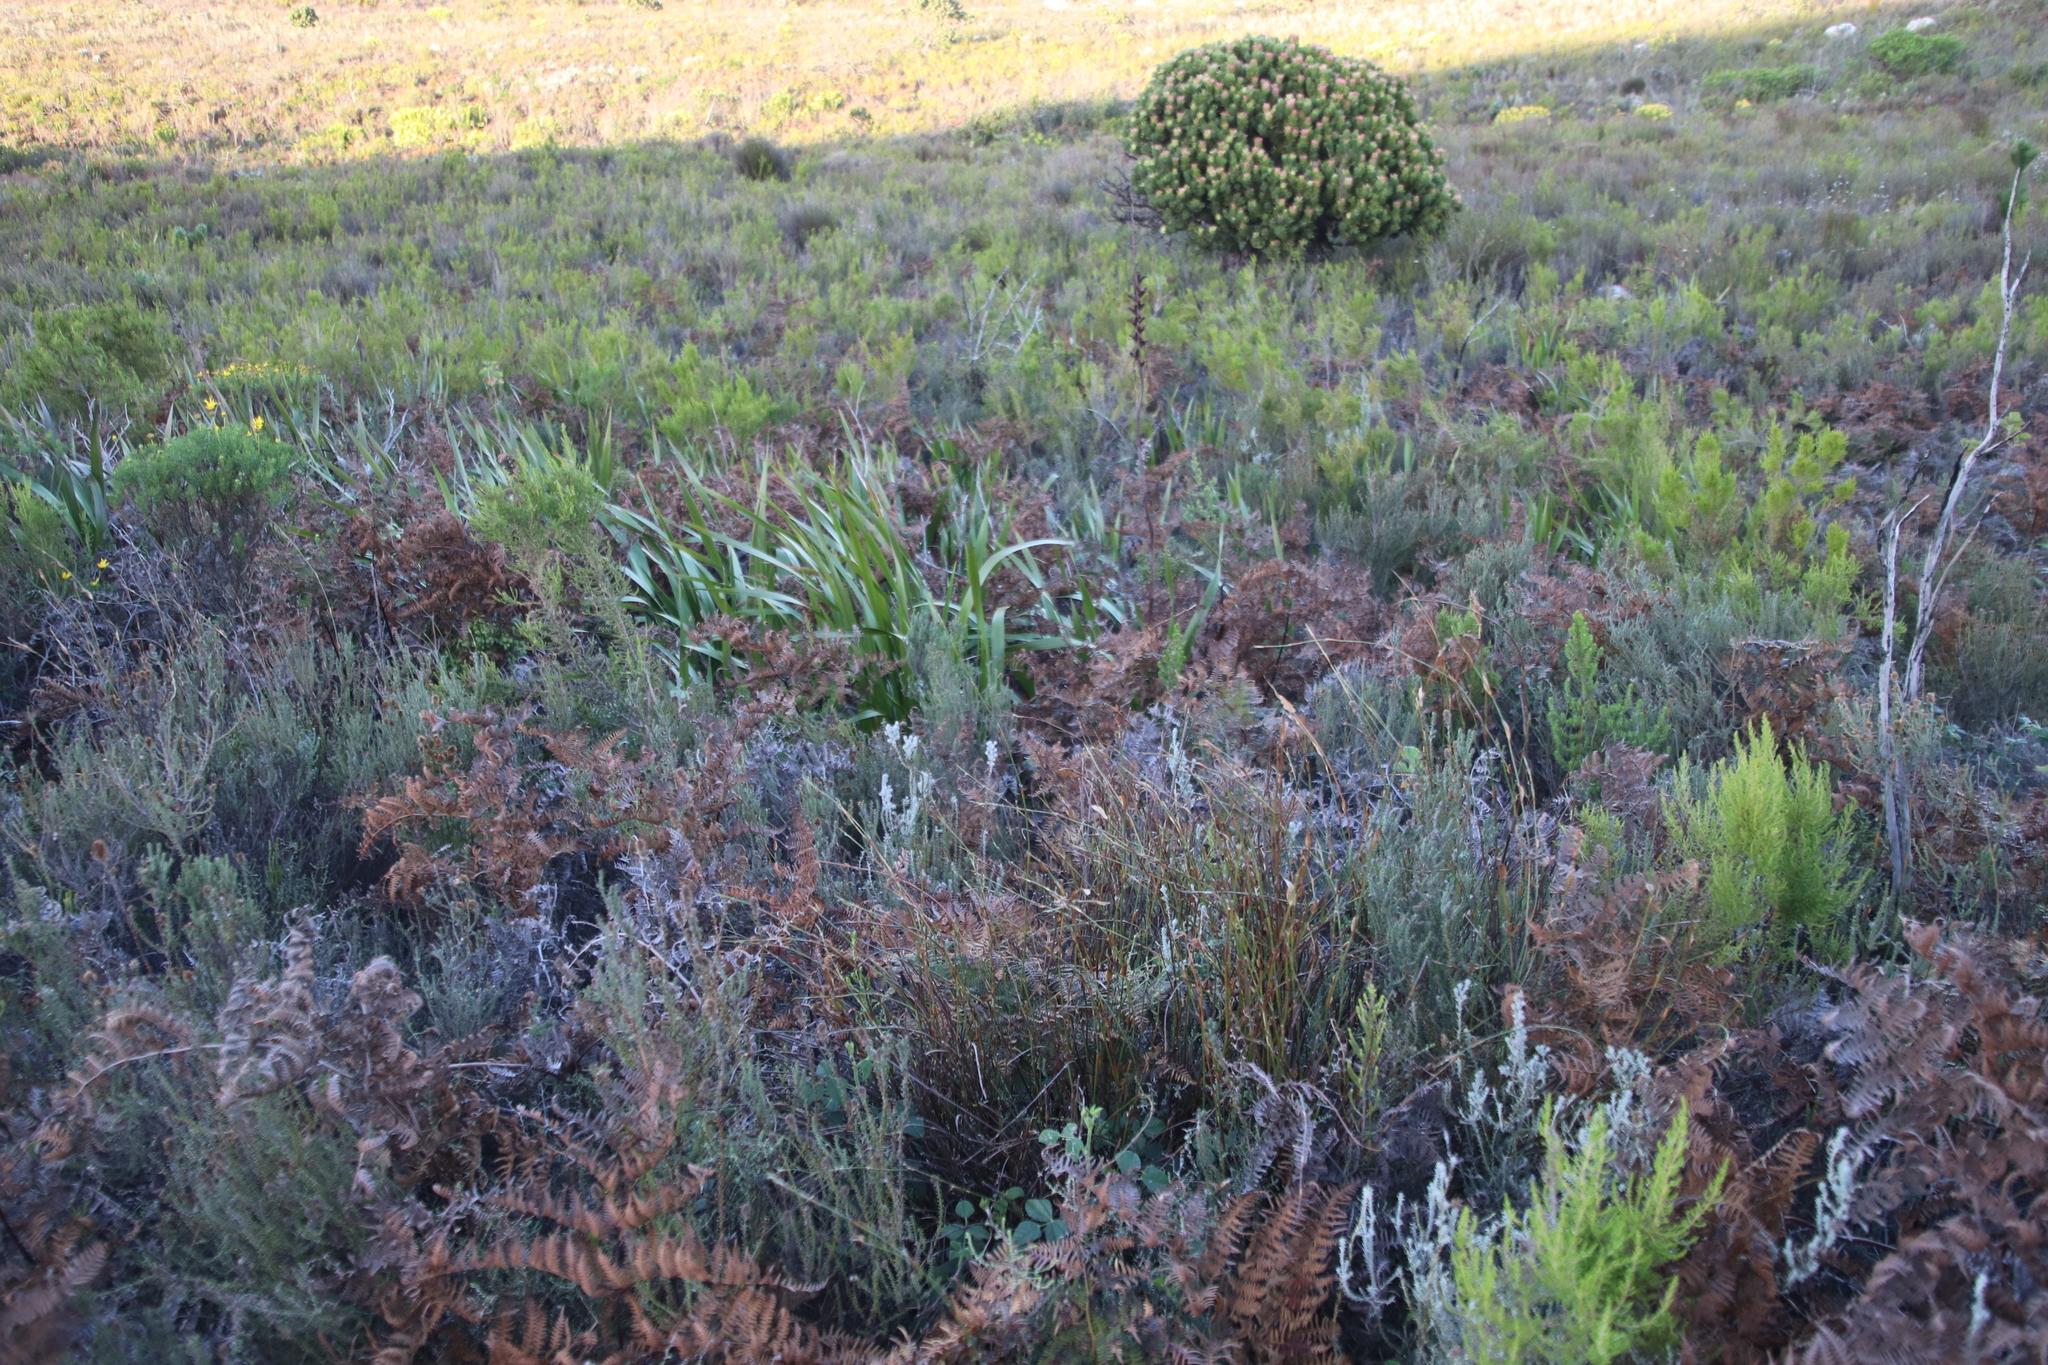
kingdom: Plantae
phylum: Tracheophyta
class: Polypodiopsida
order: Polypodiales
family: Dennstaedtiaceae
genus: Pteridium
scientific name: Pteridium aquilinum
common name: Bracken
